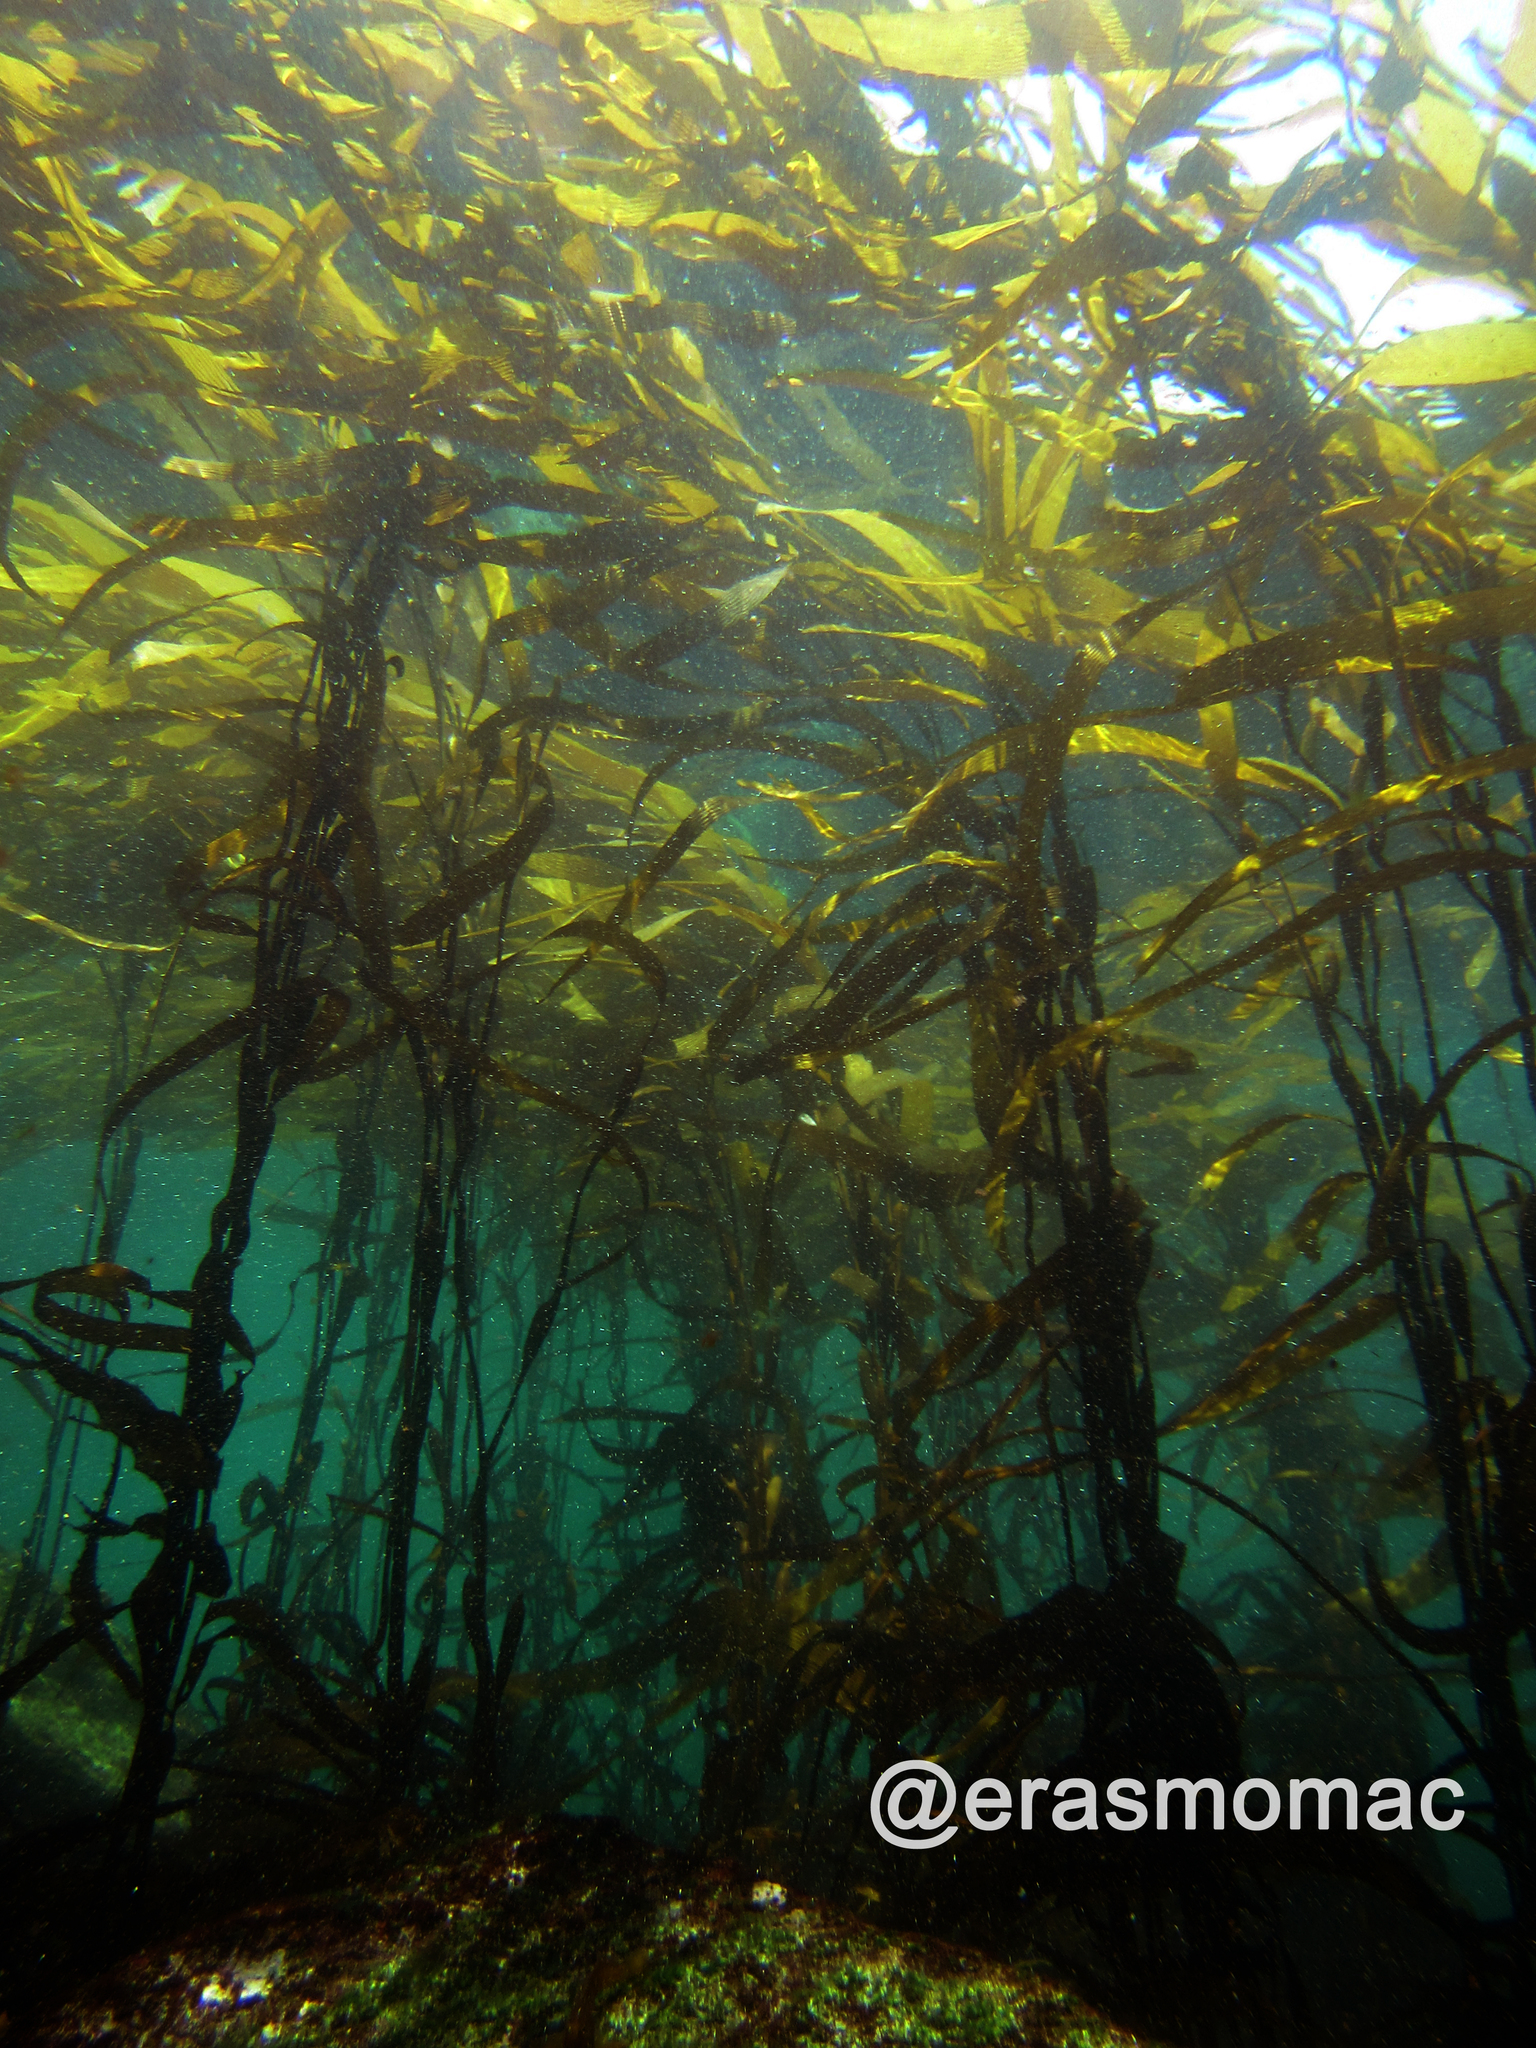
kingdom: Chromista
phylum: Ochrophyta
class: Phaeophyceae
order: Laminariales
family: Laminariaceae
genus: Macrocystis
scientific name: Macrocystis pyrifera
